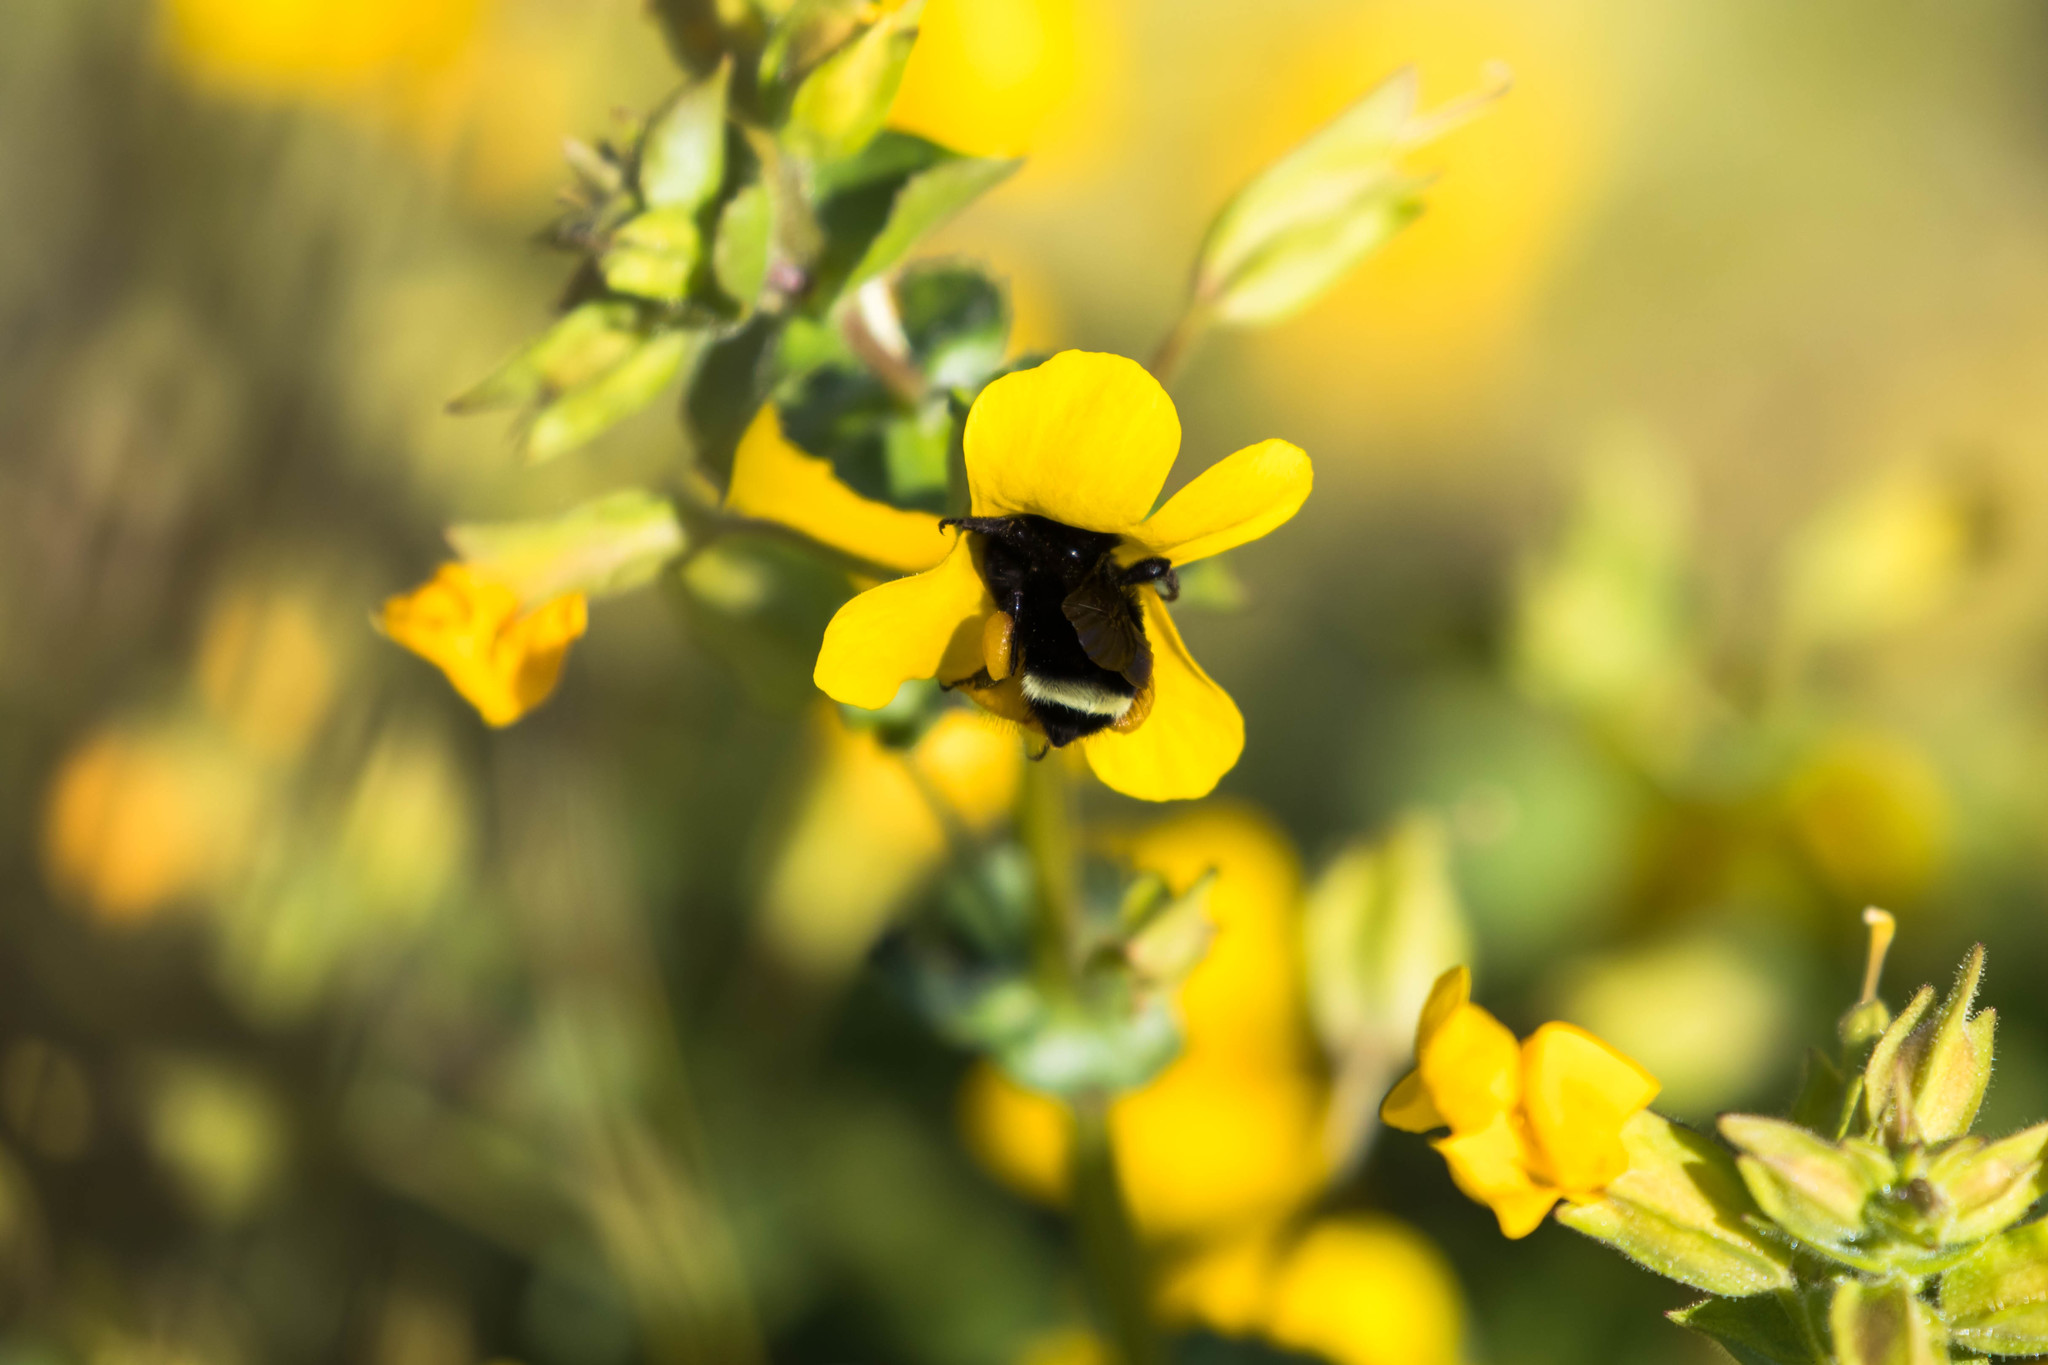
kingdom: Animalia
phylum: Arthropoda
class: Insecta
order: Hymenoptera
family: Apidae
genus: Bombus
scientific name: Bombus vosnesenskii
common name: Vosnesensky bumble bee
